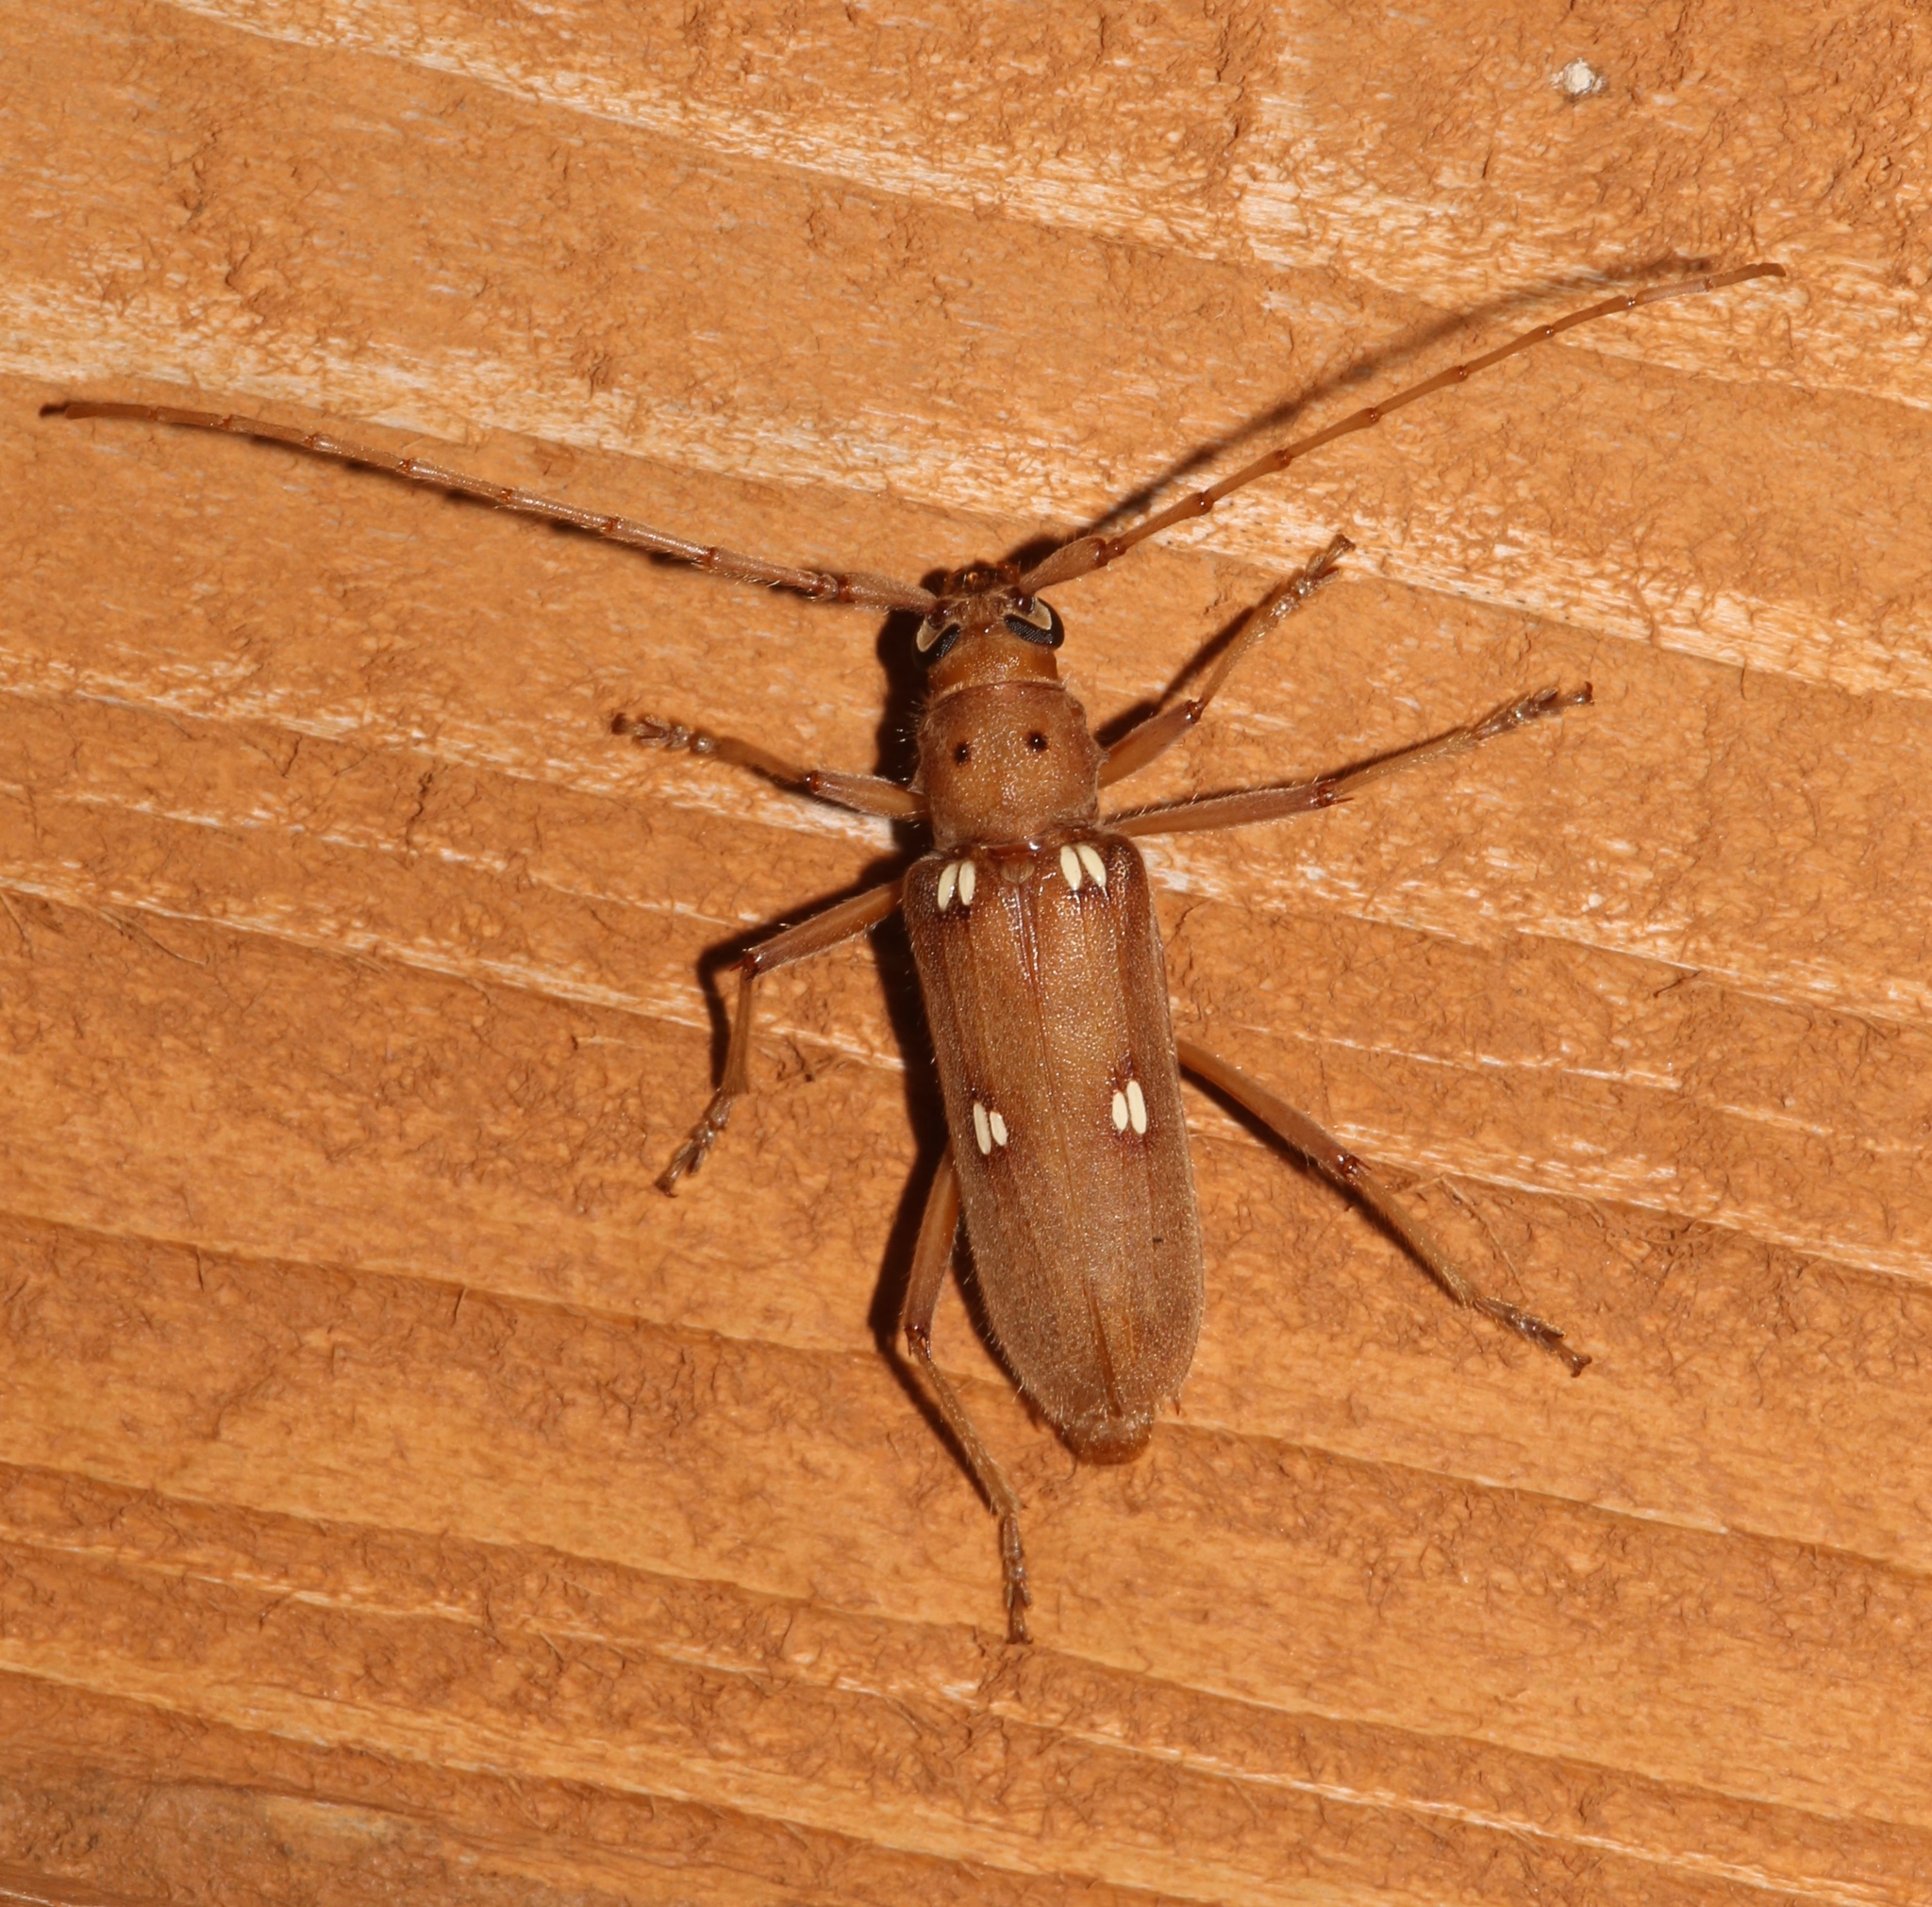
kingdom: Animalia
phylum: Arthropoda
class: Insecta
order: Coleoptera
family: Cerambycidae
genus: Eburia
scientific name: Eburia quadrigeminata
